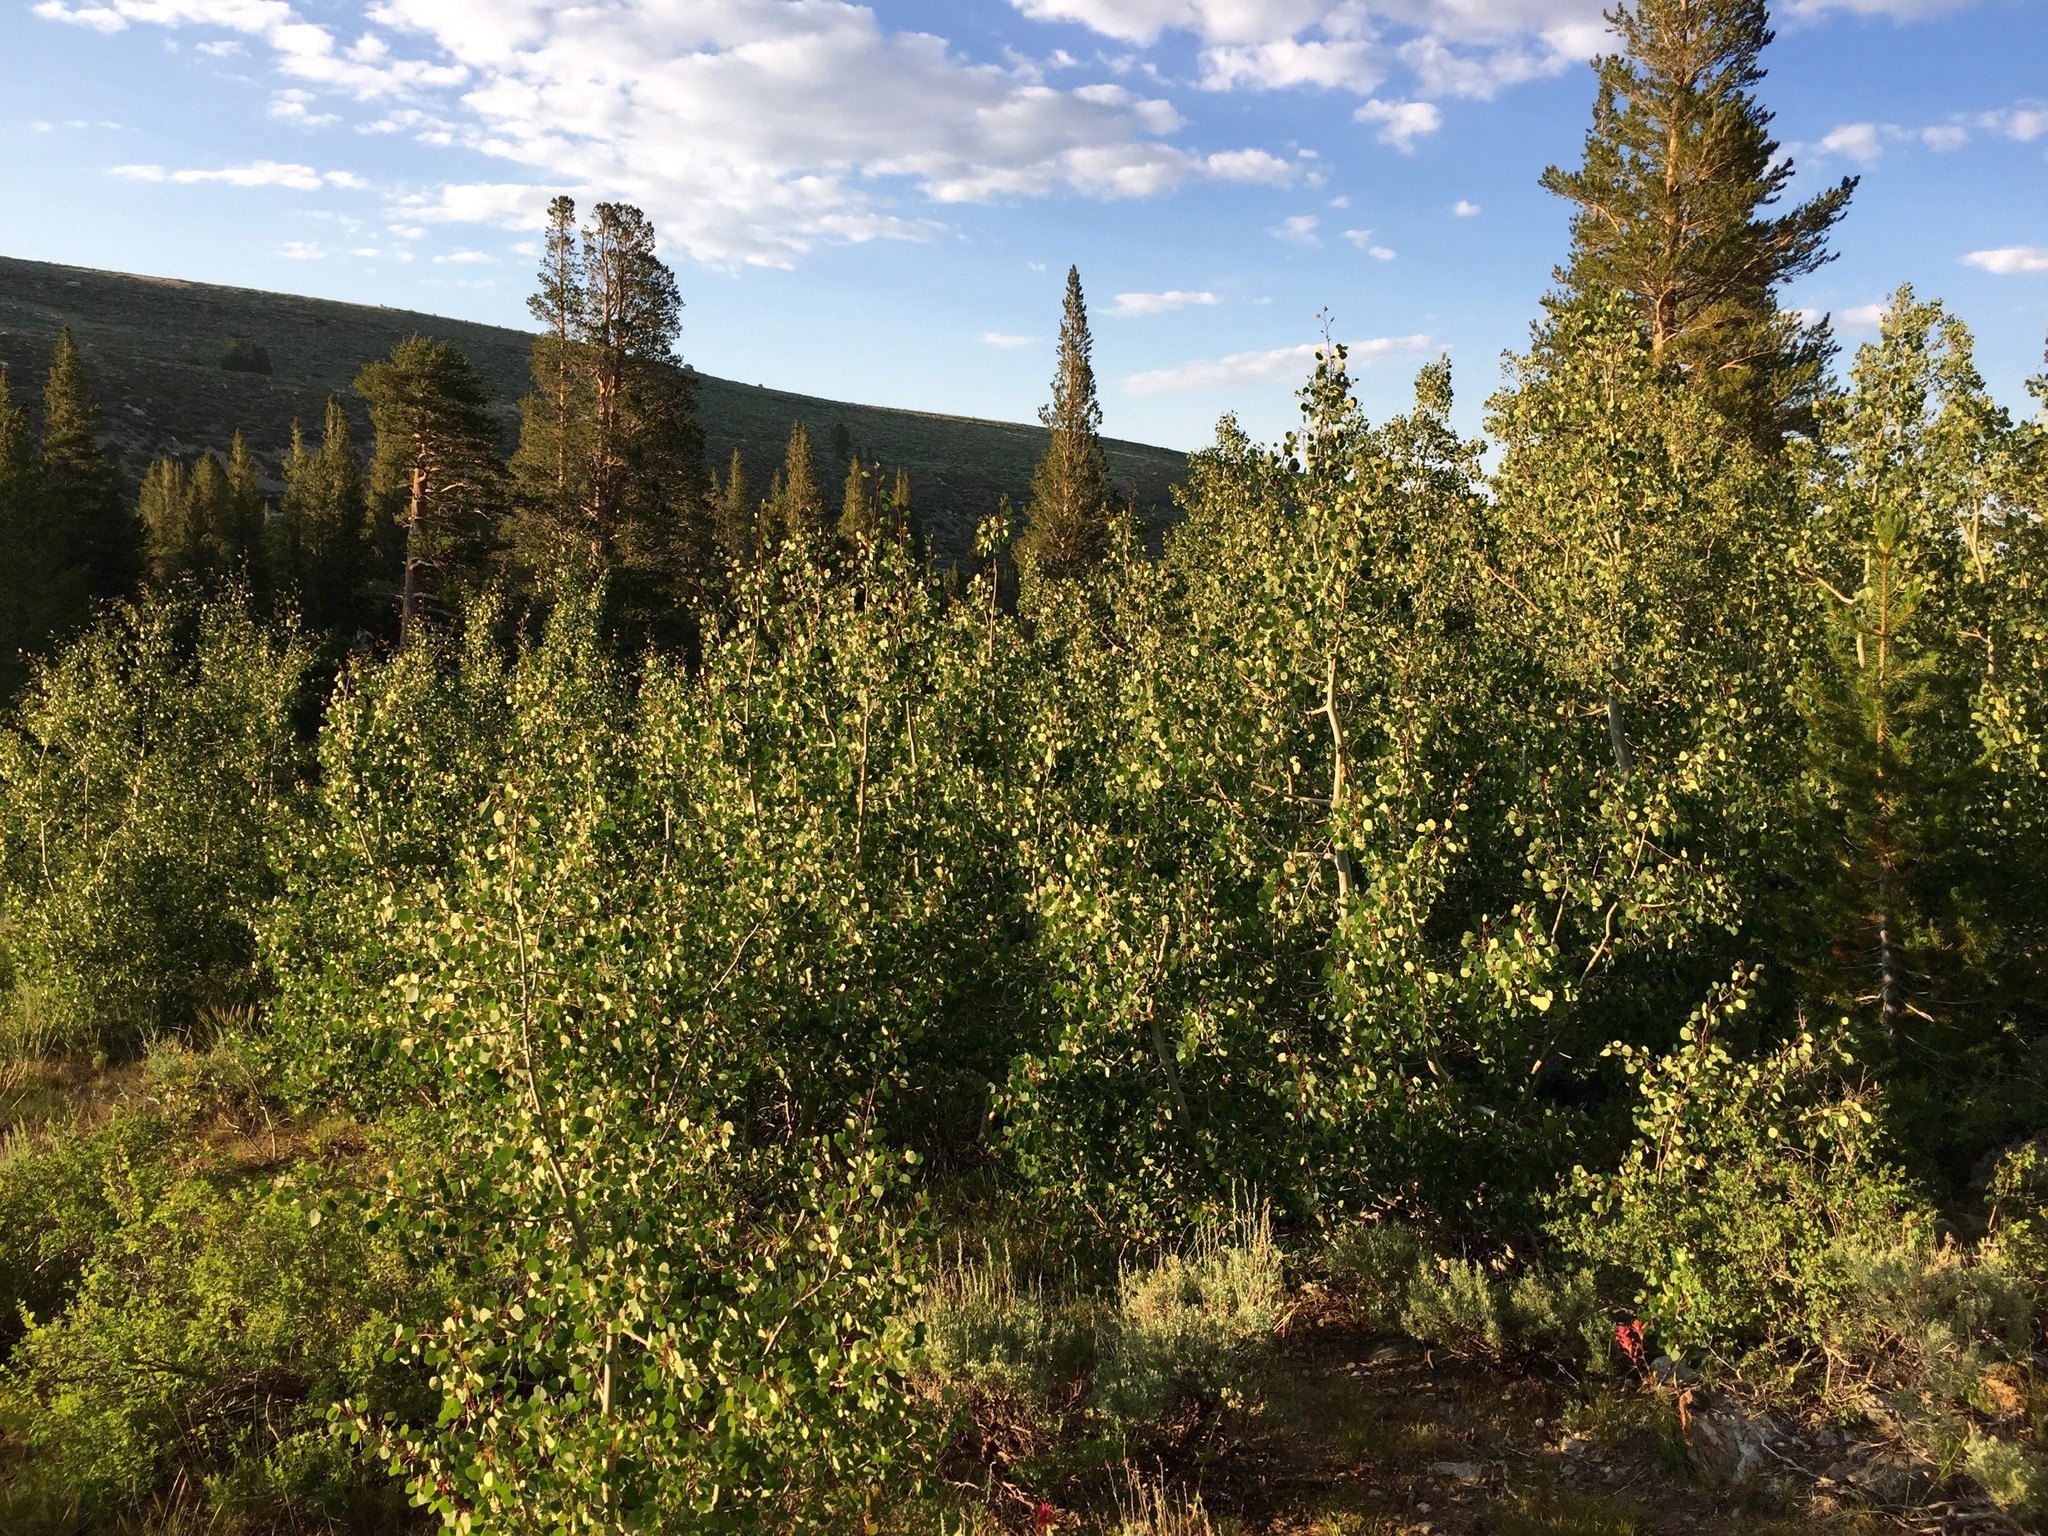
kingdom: Plantae
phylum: Tracheophyta
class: Magnoliopsida
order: Malpighiales
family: Salicaceae
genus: Populus
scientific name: Populus tremuloides
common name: Quaking aspen
